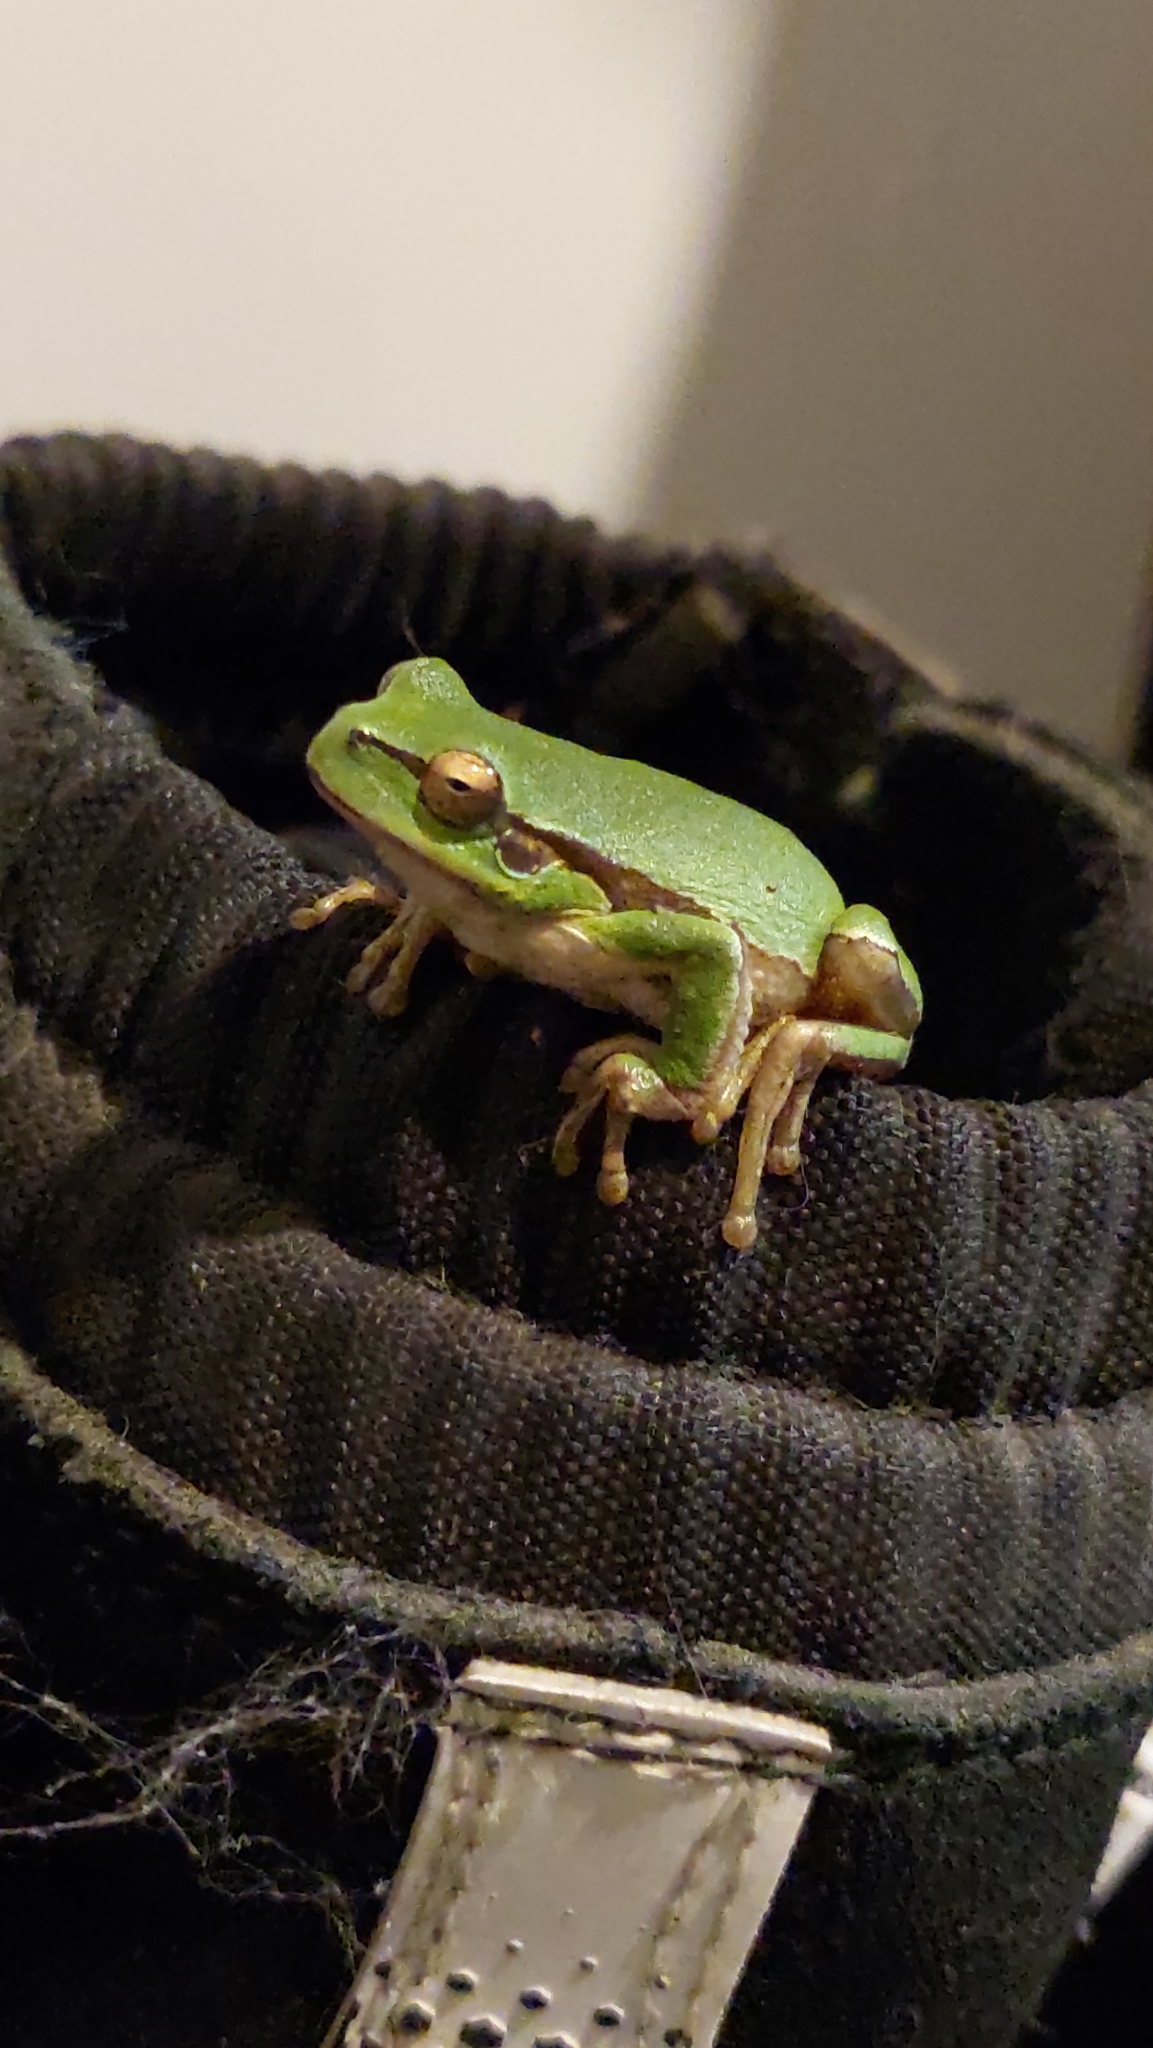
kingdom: Animalia
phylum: Chordata
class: Amphibia
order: Anura
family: Hylidae
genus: Hyla
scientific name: Hyla orientalis
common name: Caucasian treefrog
